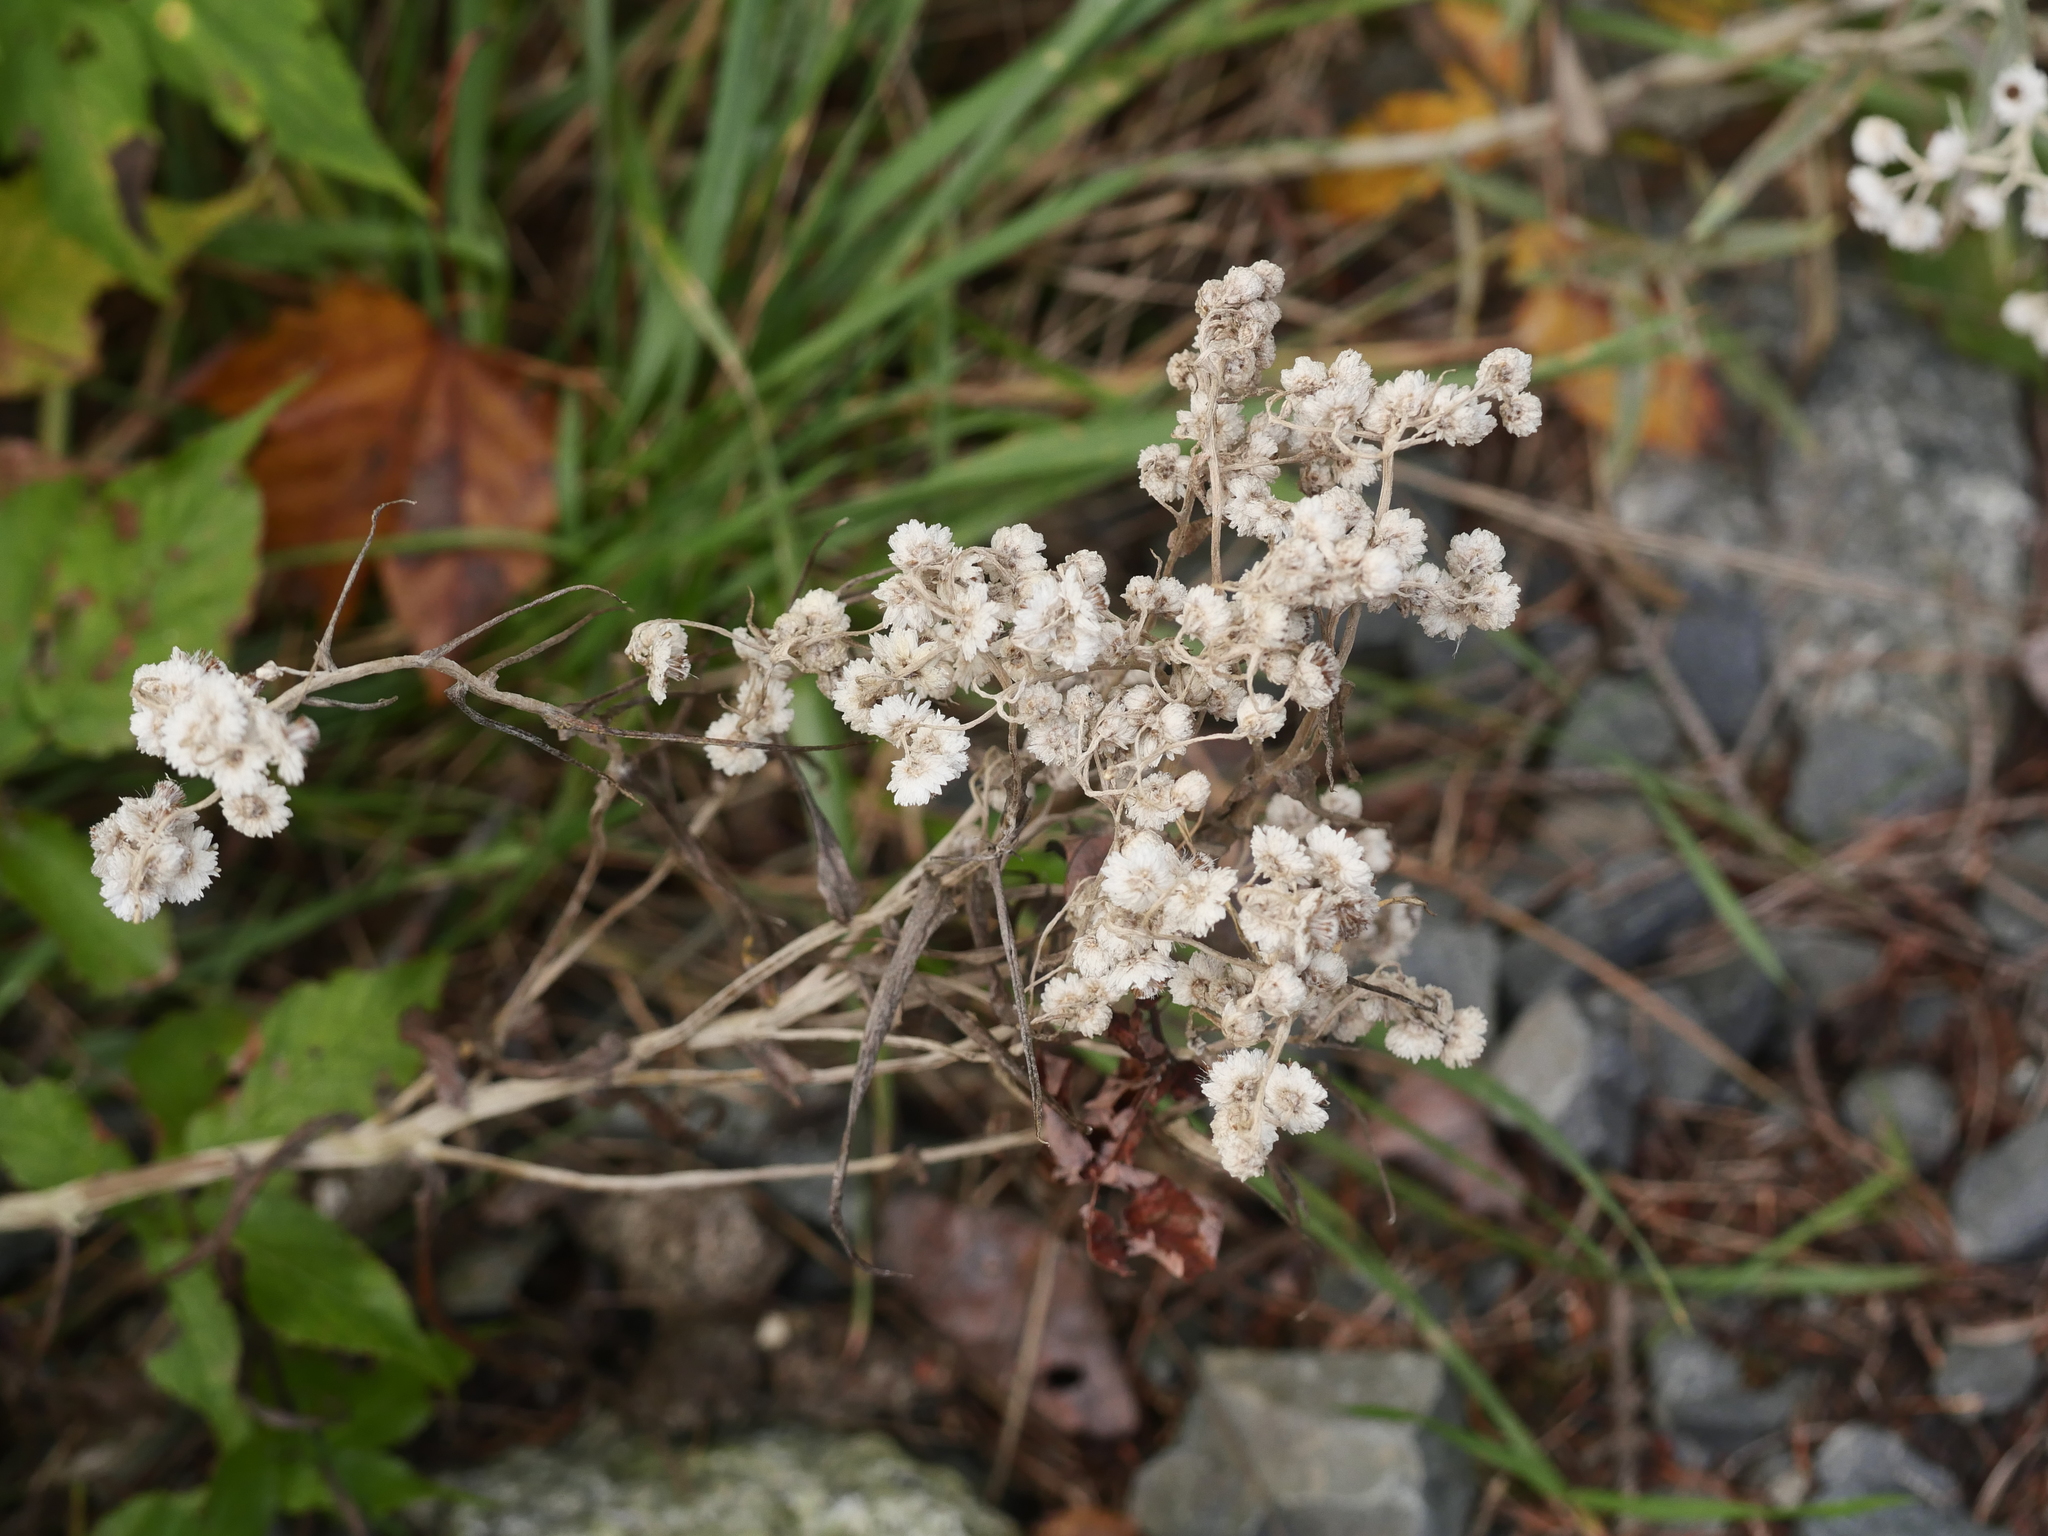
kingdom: Plantae
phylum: Tracheophyta
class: Magnoliopsida
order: Asterales
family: Asteraceae
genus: Anaphalis
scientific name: Anaphalis margaritacea
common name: Pearly everlasting
